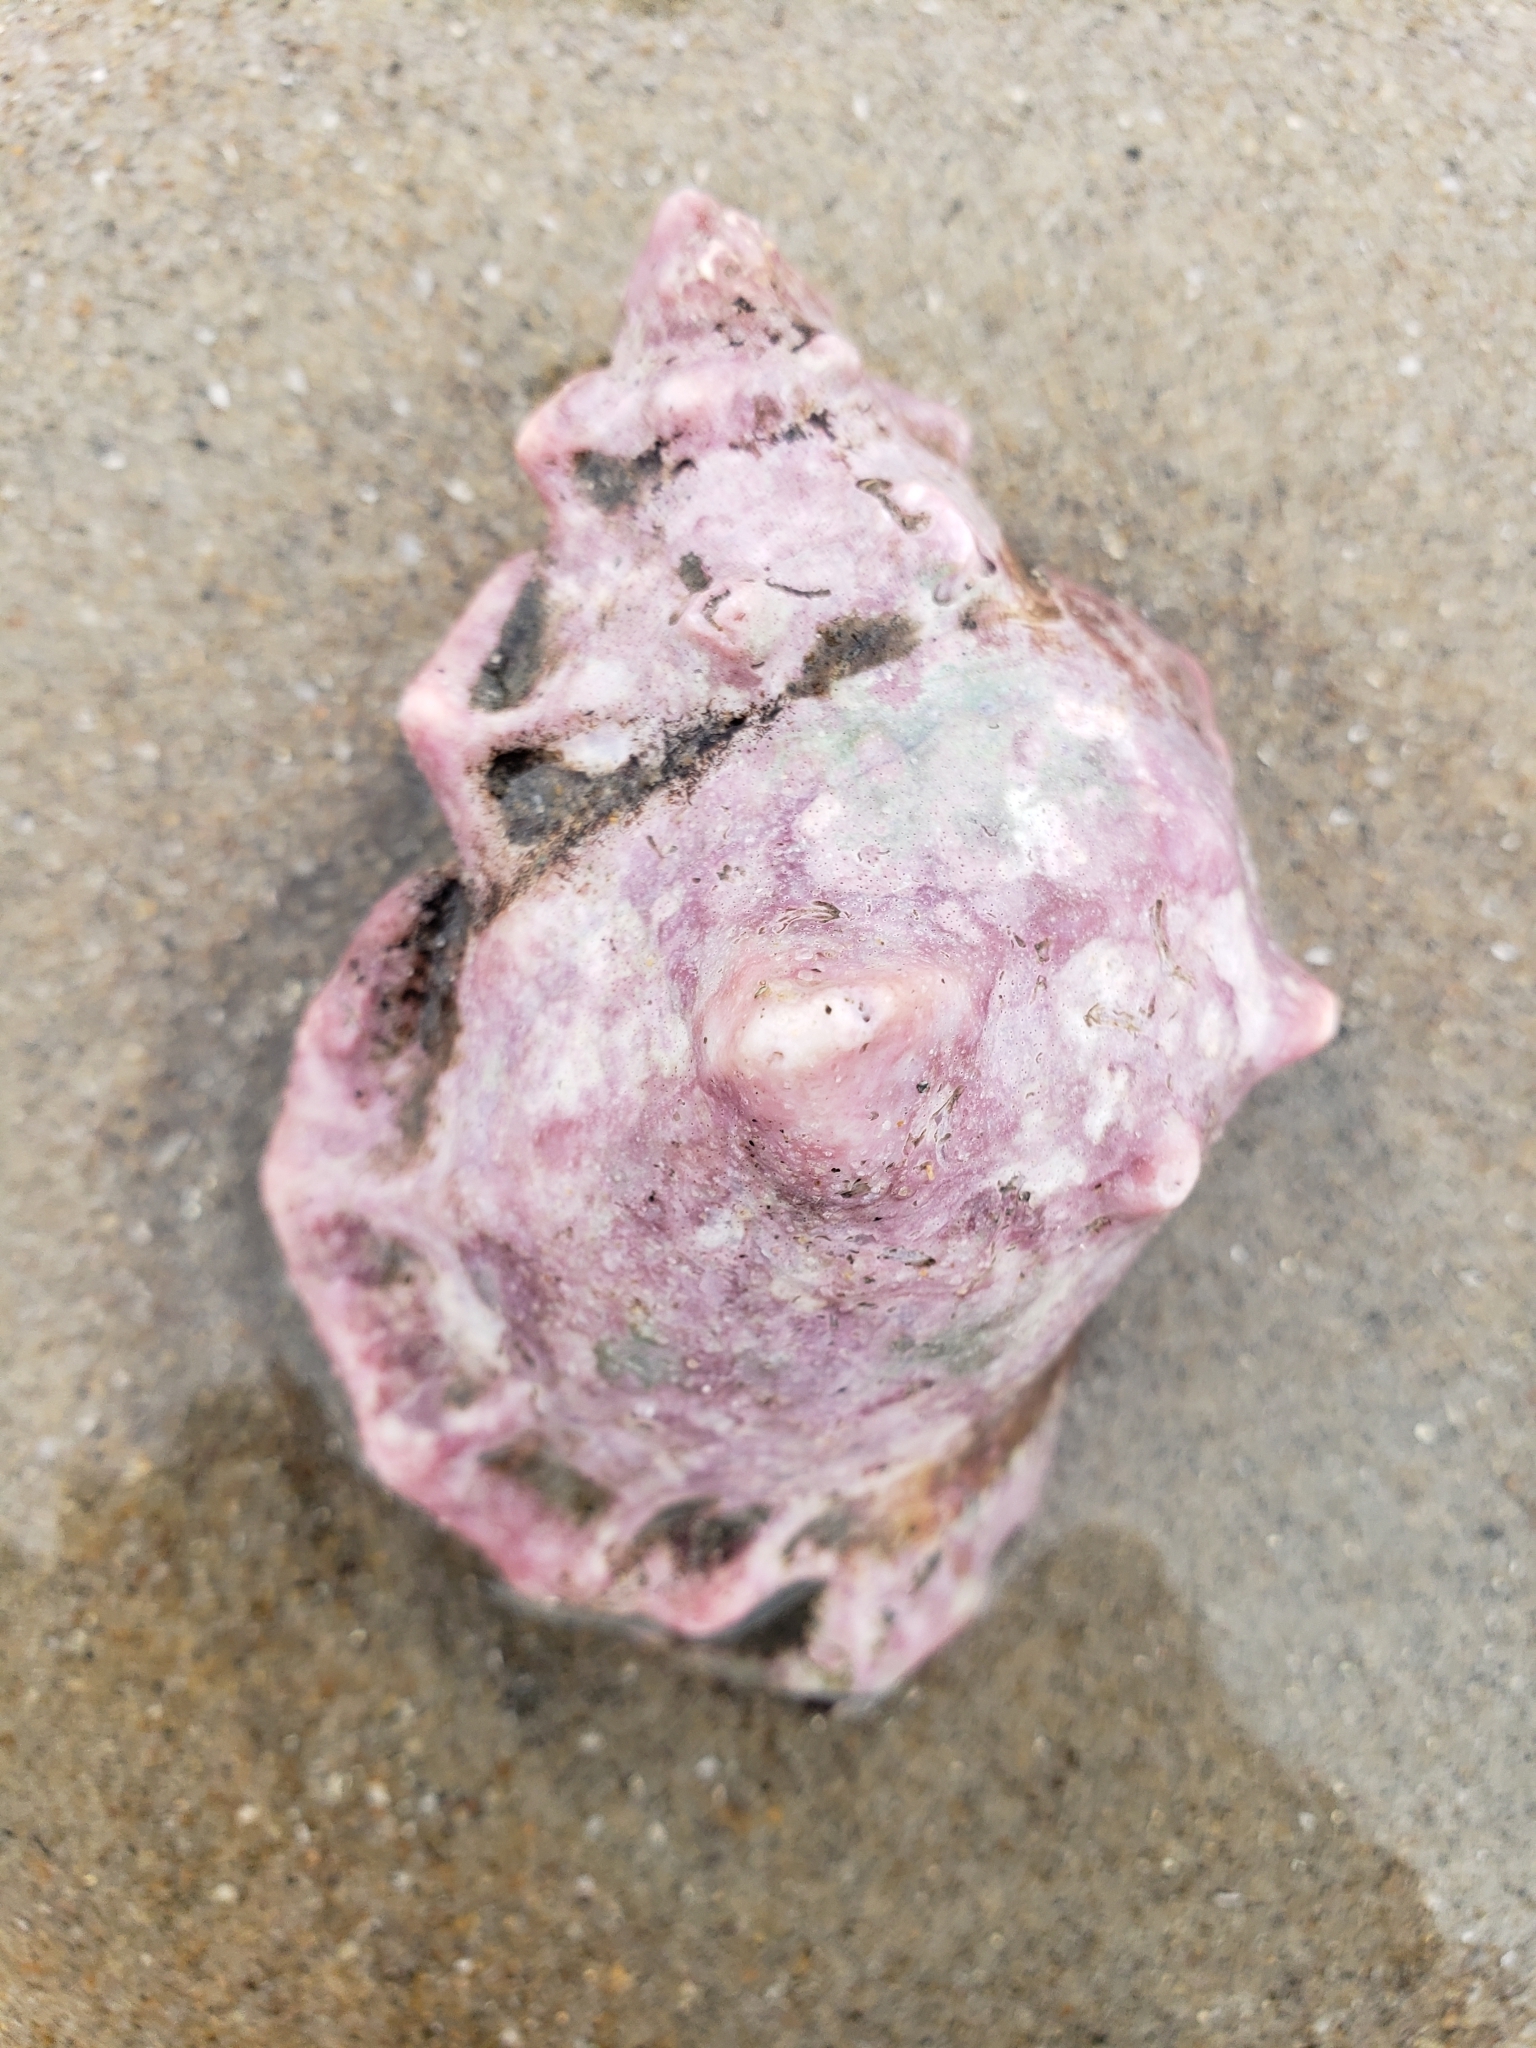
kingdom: Animalia
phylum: Mollusca
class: Gastropoda
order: Littorinimorpha
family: Bursidae
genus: Crossata
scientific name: Crossata californica
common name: California frogsnail
